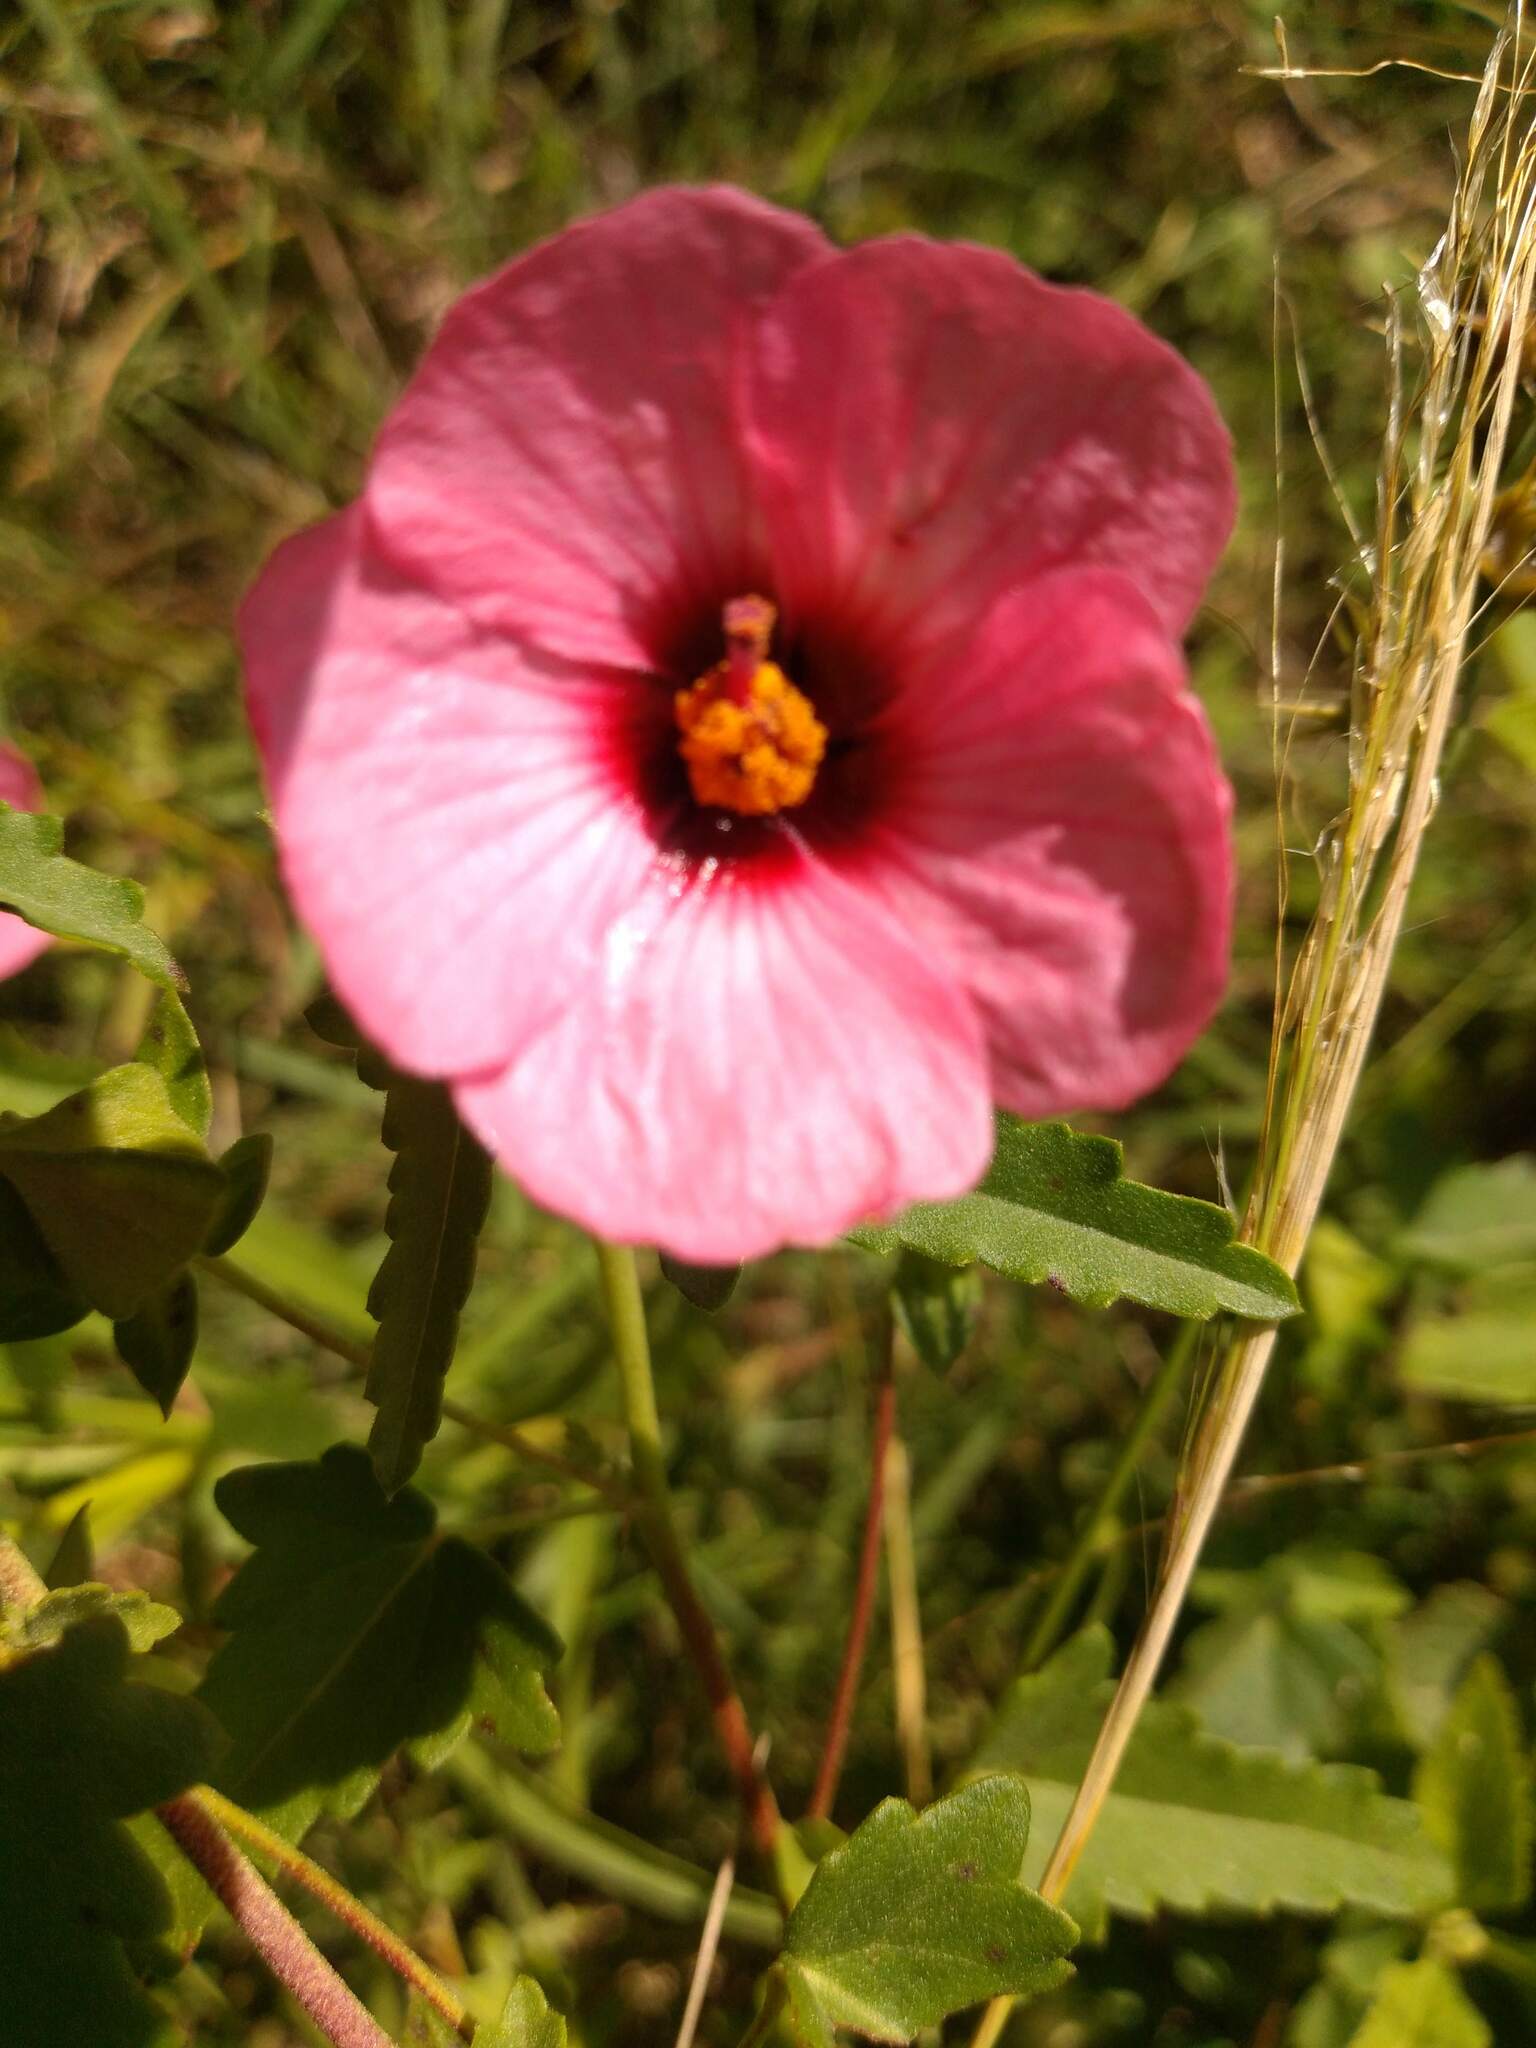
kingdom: Plantae
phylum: Tracheophyta
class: Magnoliopsida
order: Malvales
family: Malvaceae
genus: Pavonia
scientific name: Pavonia revoluta
